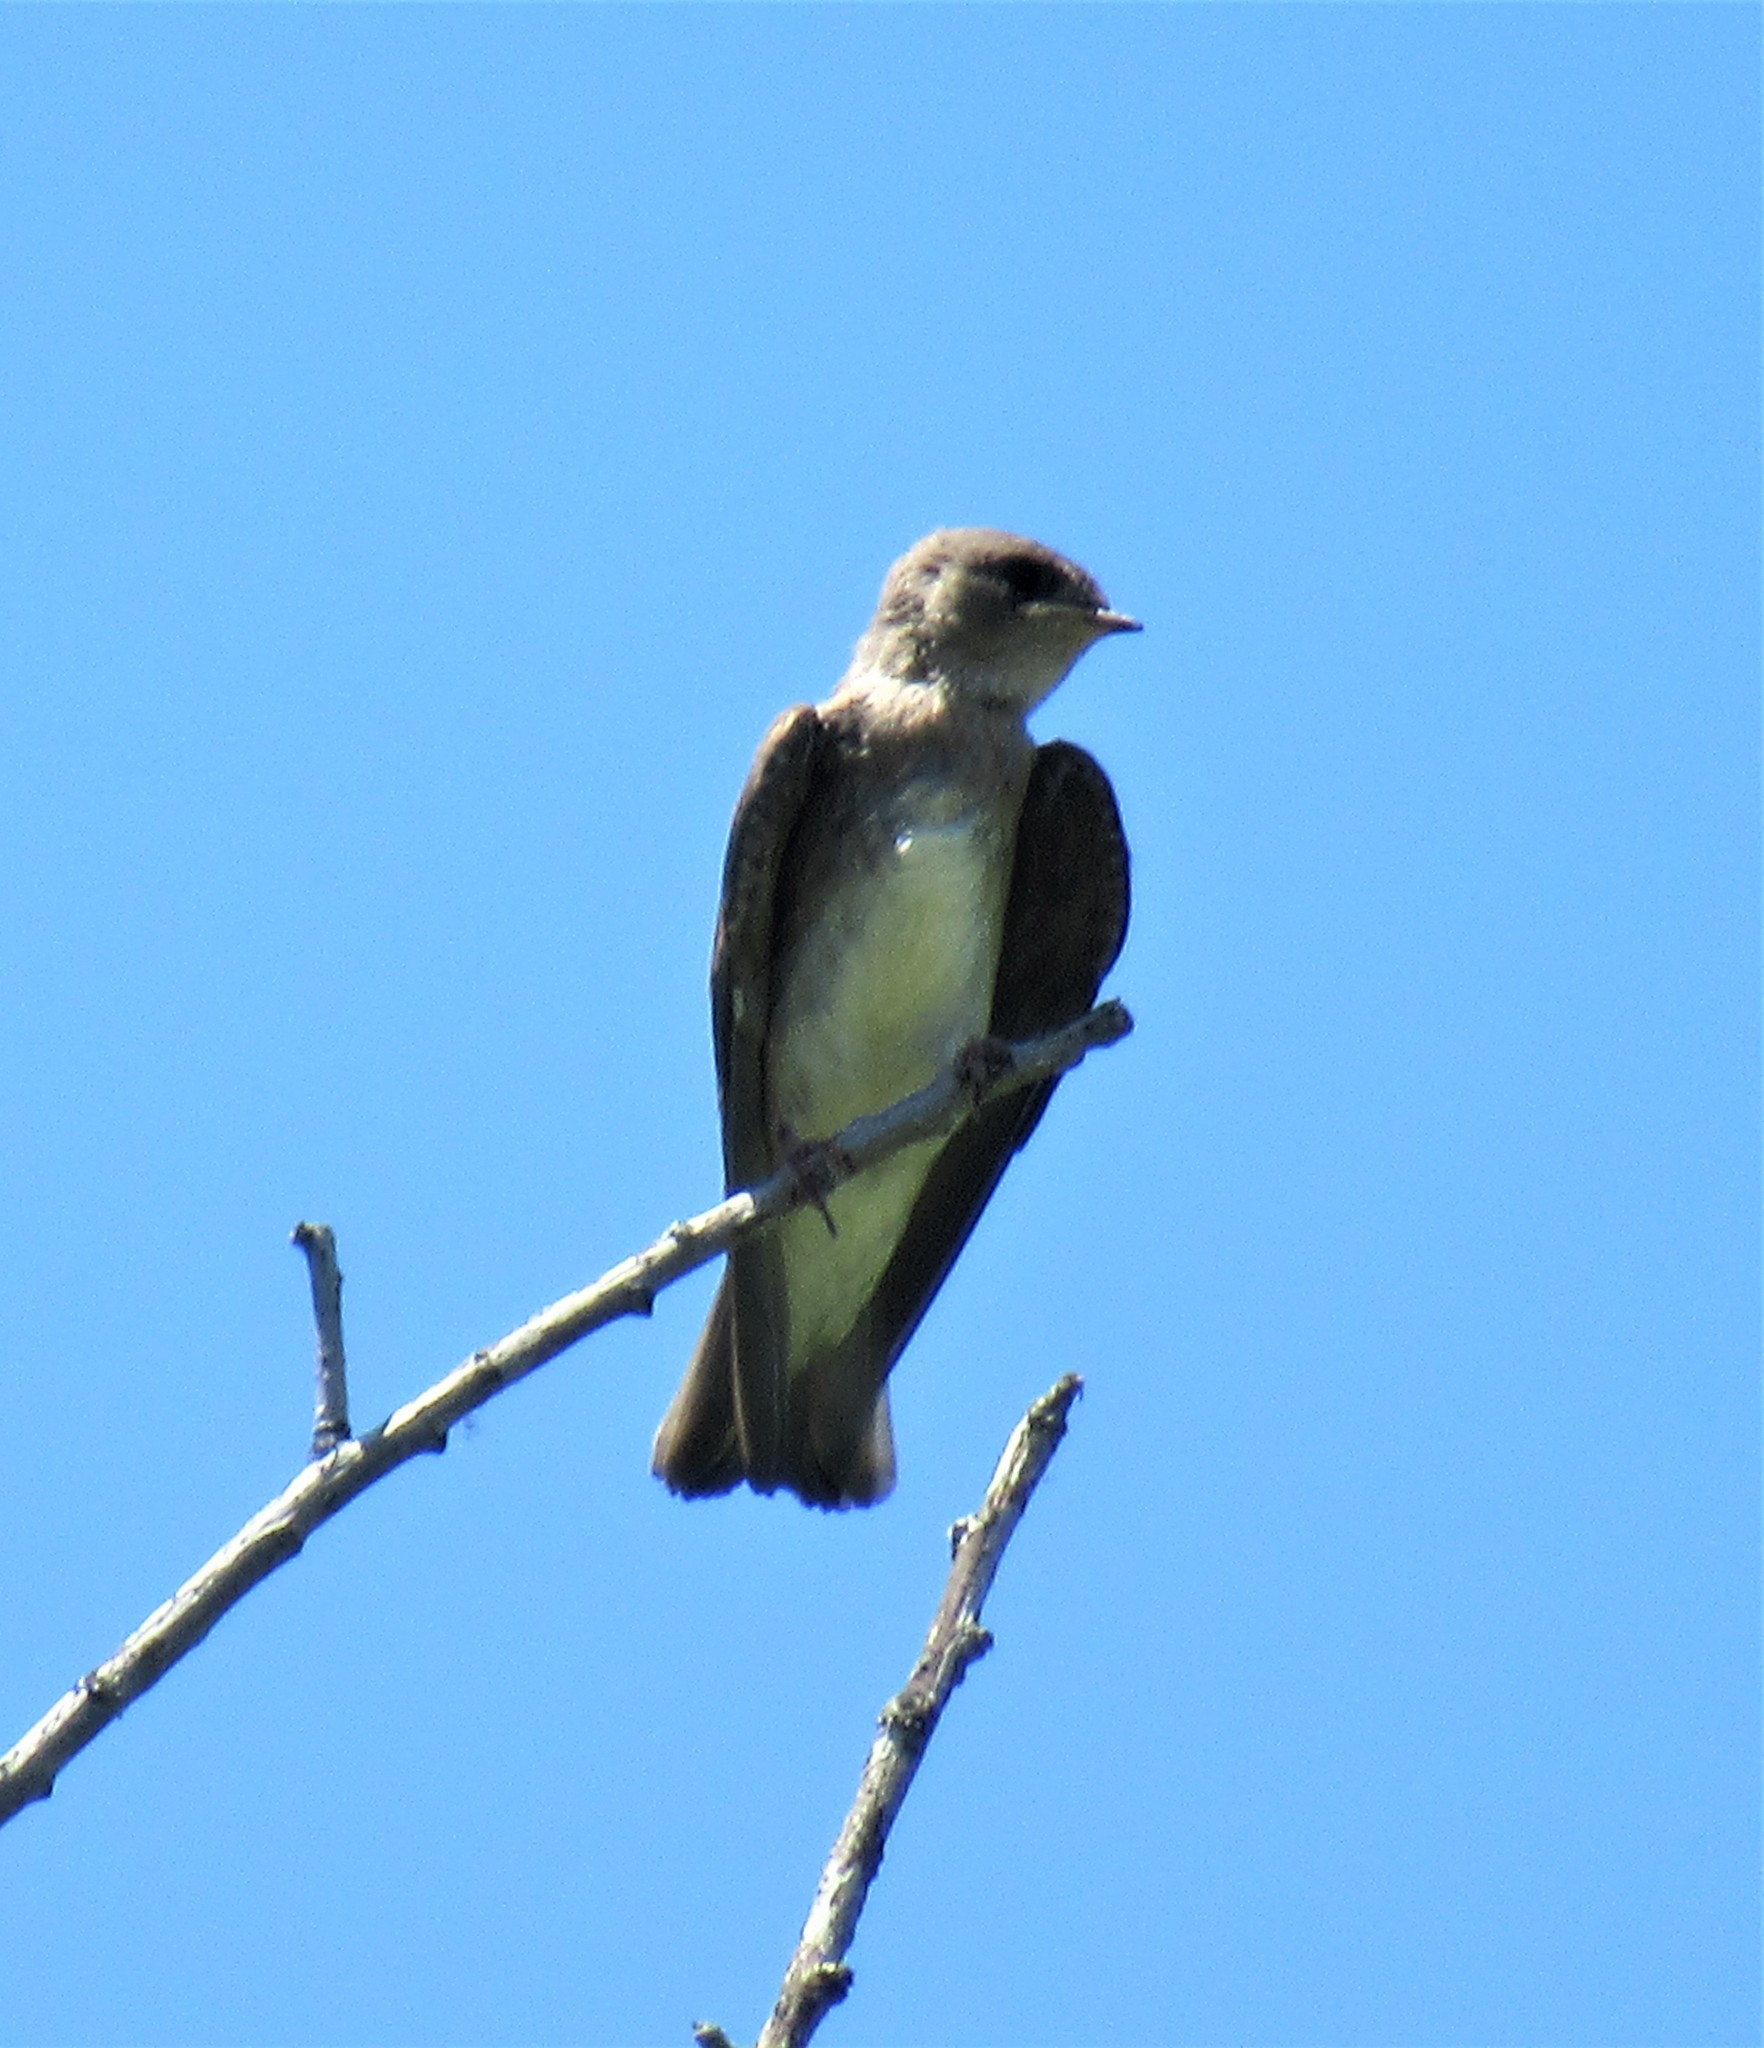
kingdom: Animalia
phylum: Chordata
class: Aves
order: Passeriformes
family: Hirundinidae
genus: Stelgidopteryx
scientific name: Stelgidopteryx serripennis
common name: Northern rough-winged swallow
